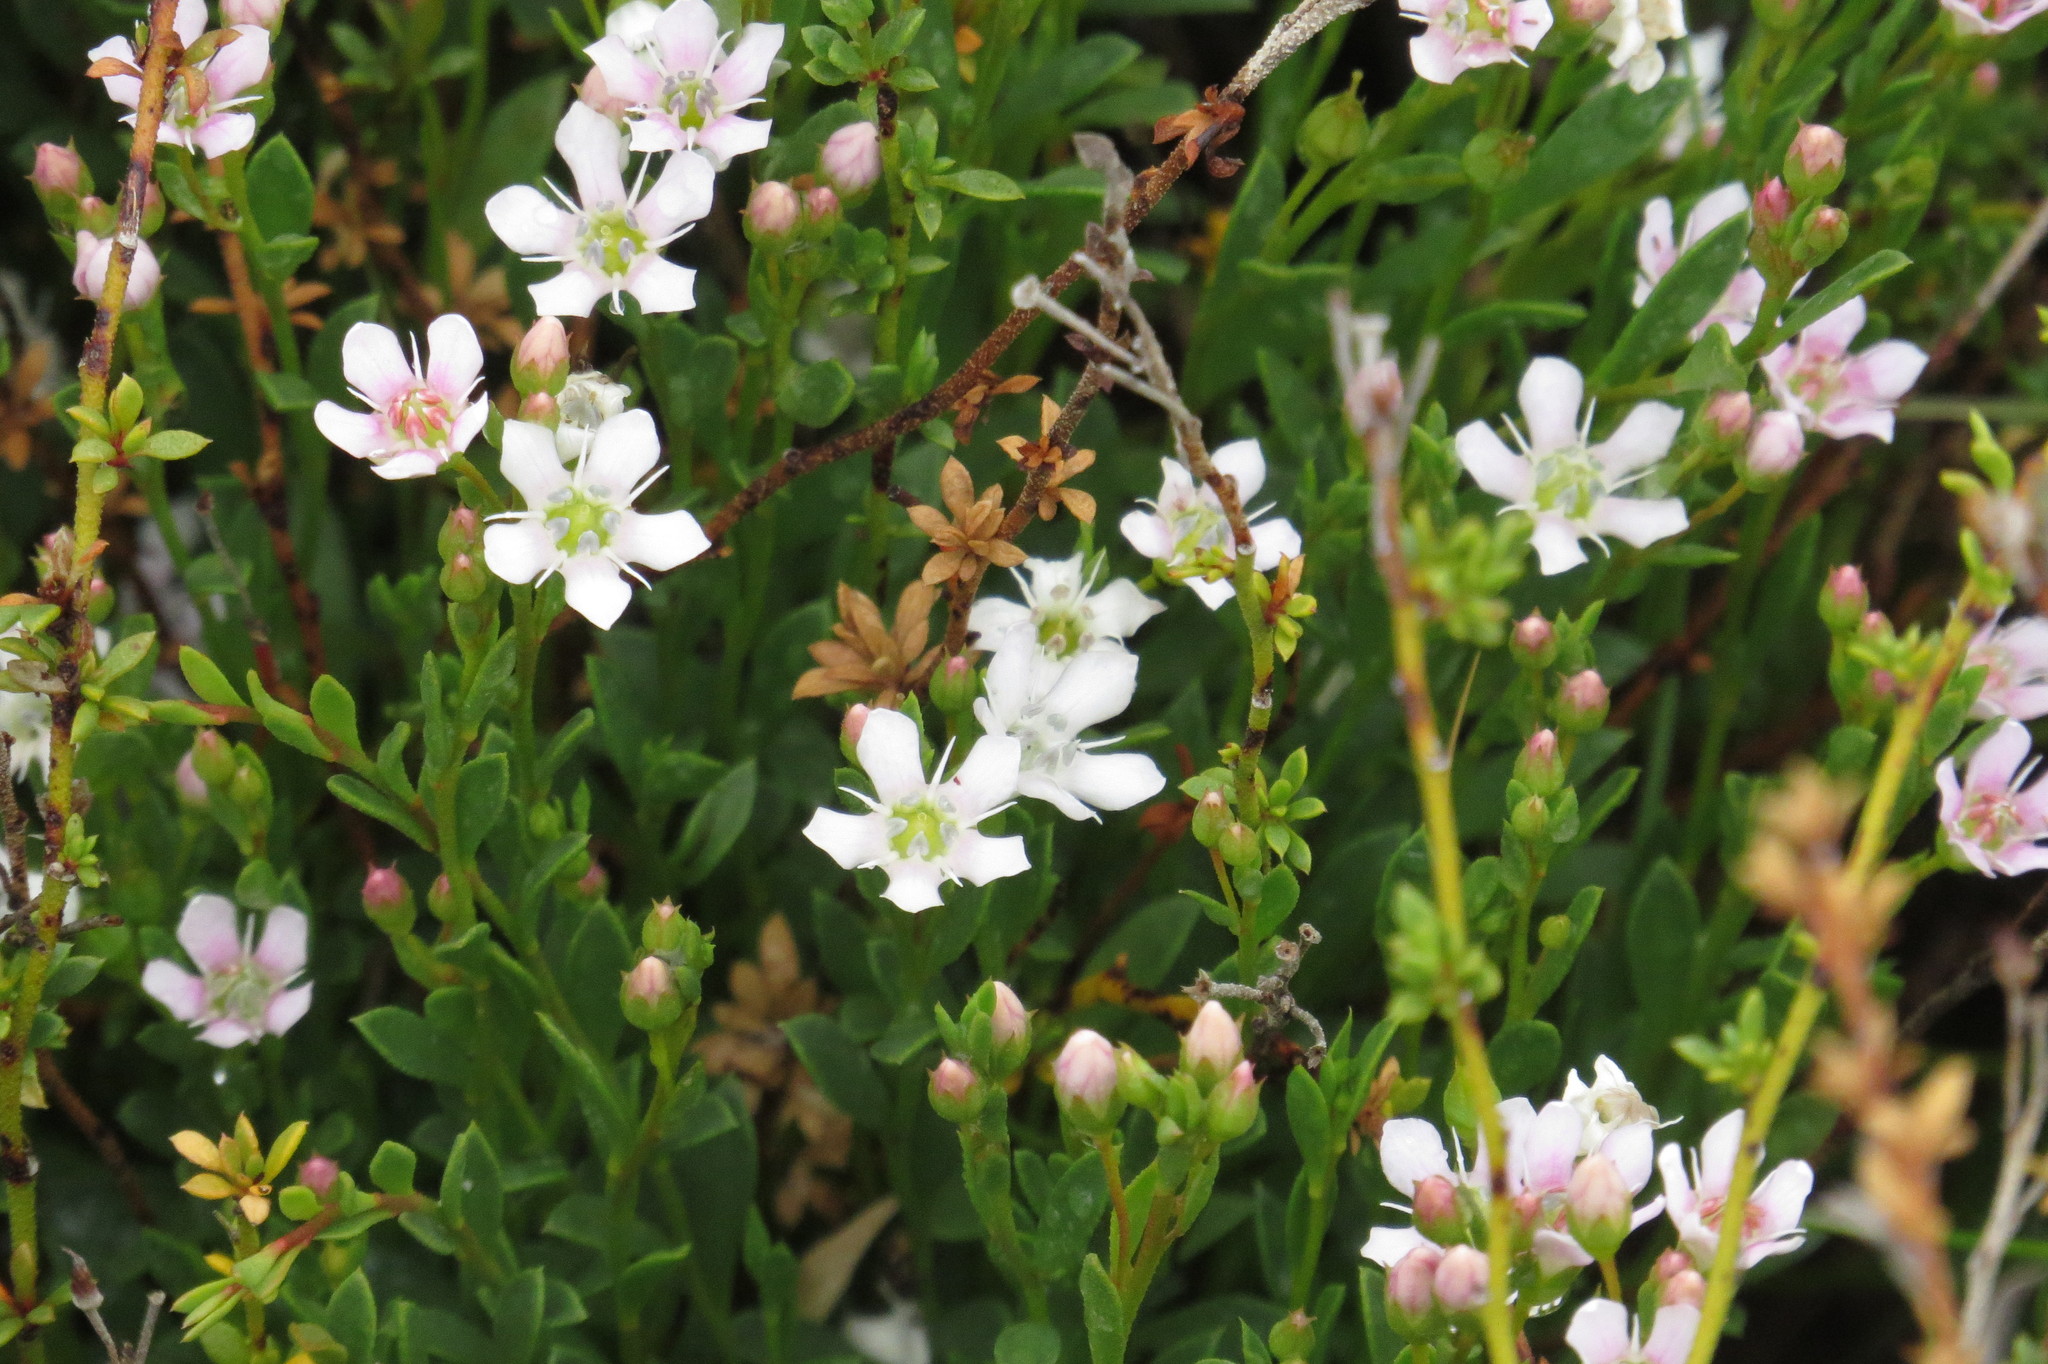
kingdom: Plantae
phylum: Tracheophyta
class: Magnoliopsida
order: Ericales
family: Primulaceae
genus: Samolus
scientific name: Samolus repens
